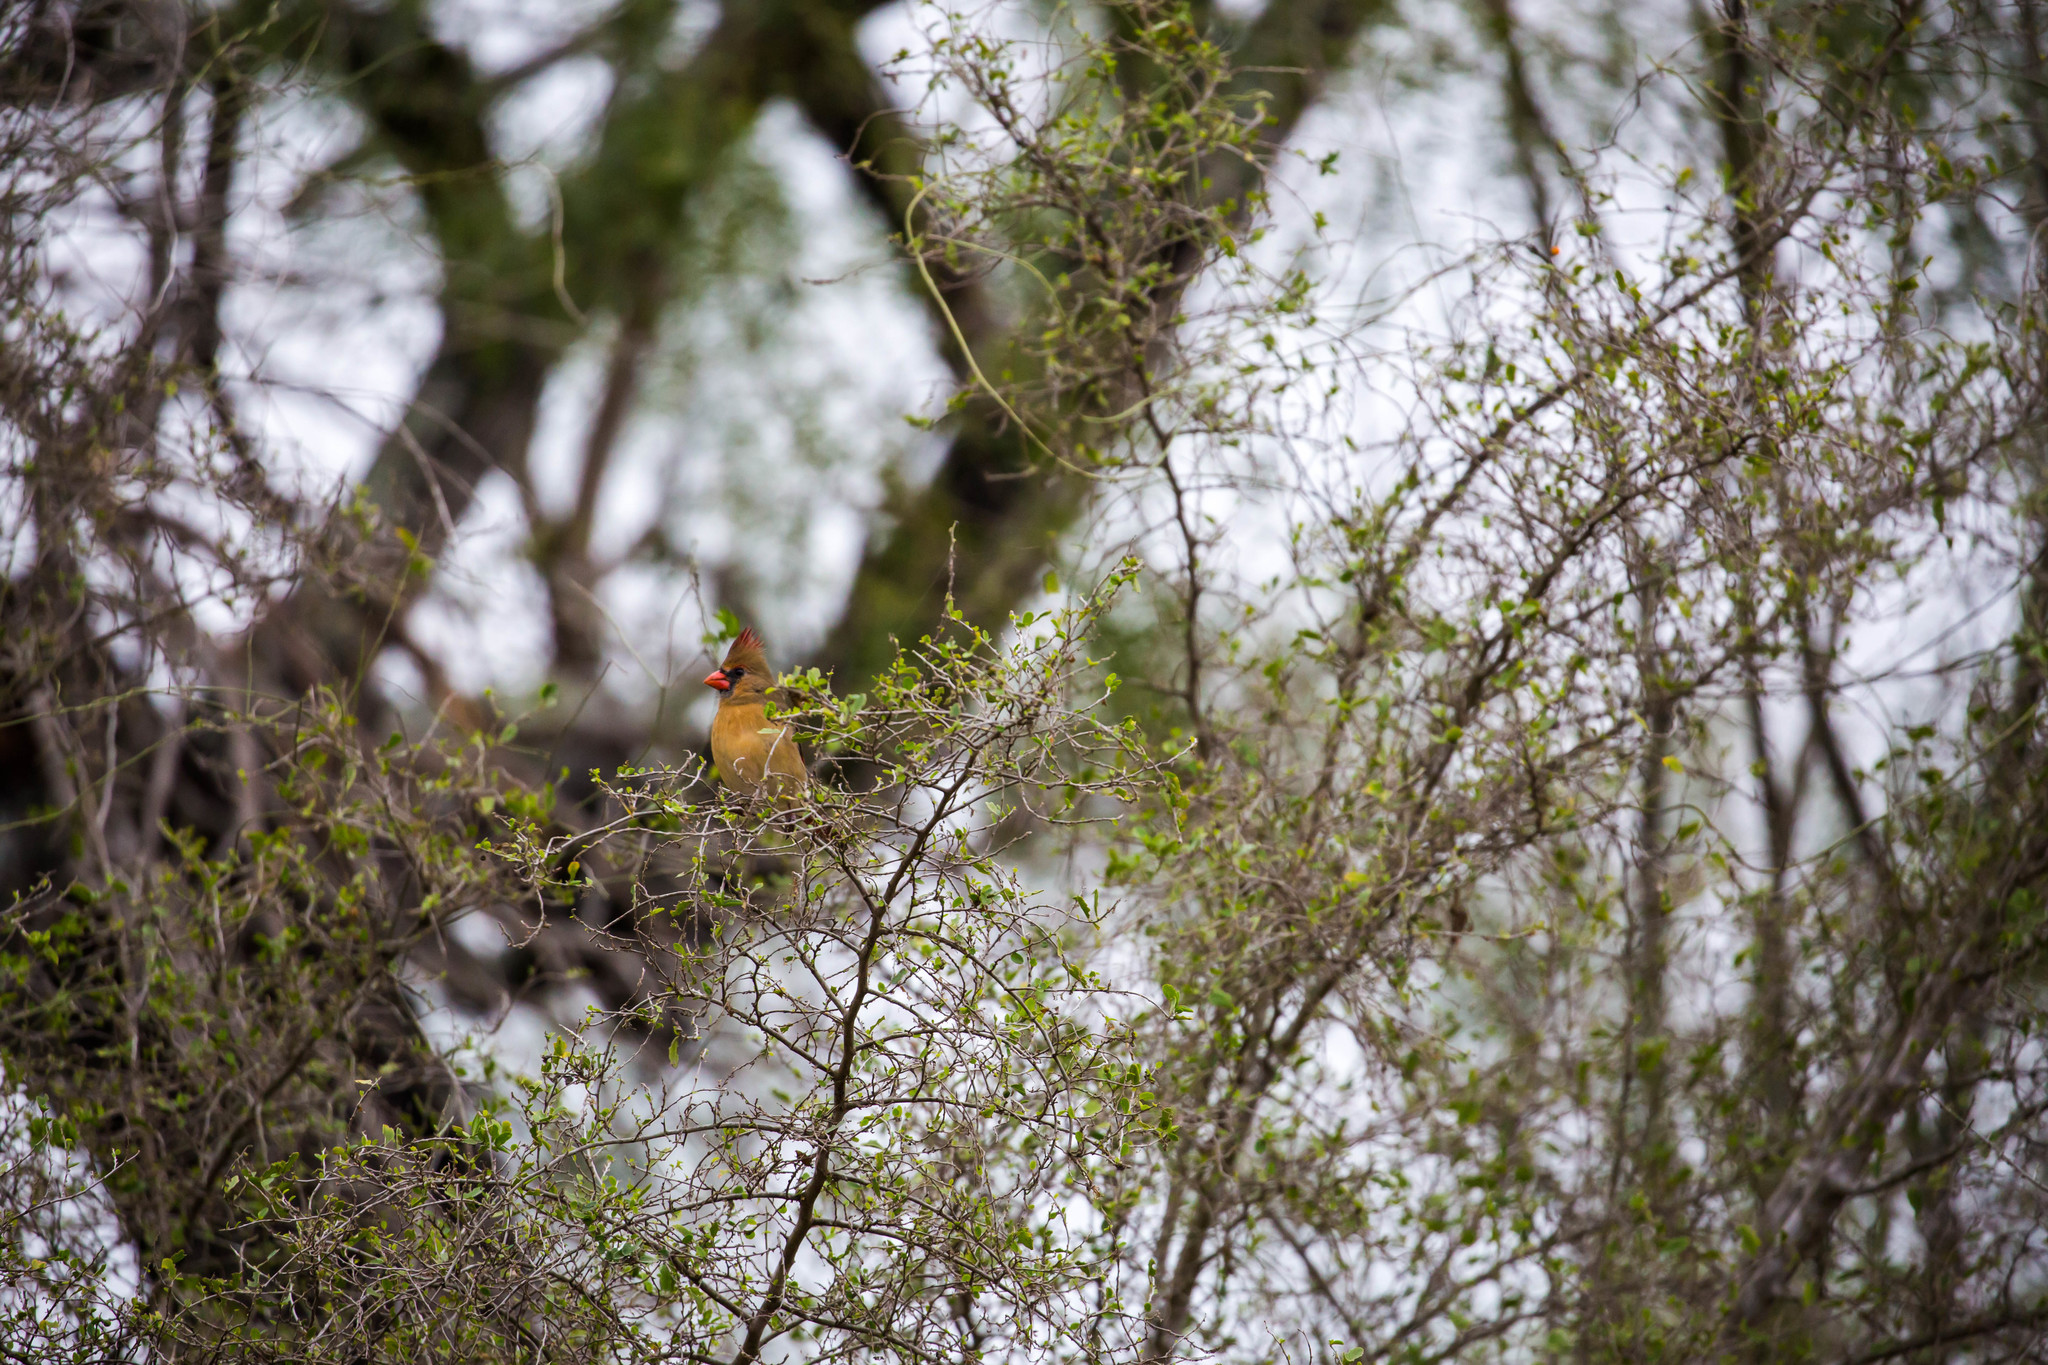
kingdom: Animalia
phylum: Chordata
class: Aves
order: Passeriformes
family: Cardinalidae
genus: Cardinalis
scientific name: Cardinalis cardinalis
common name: Northern cardinal
